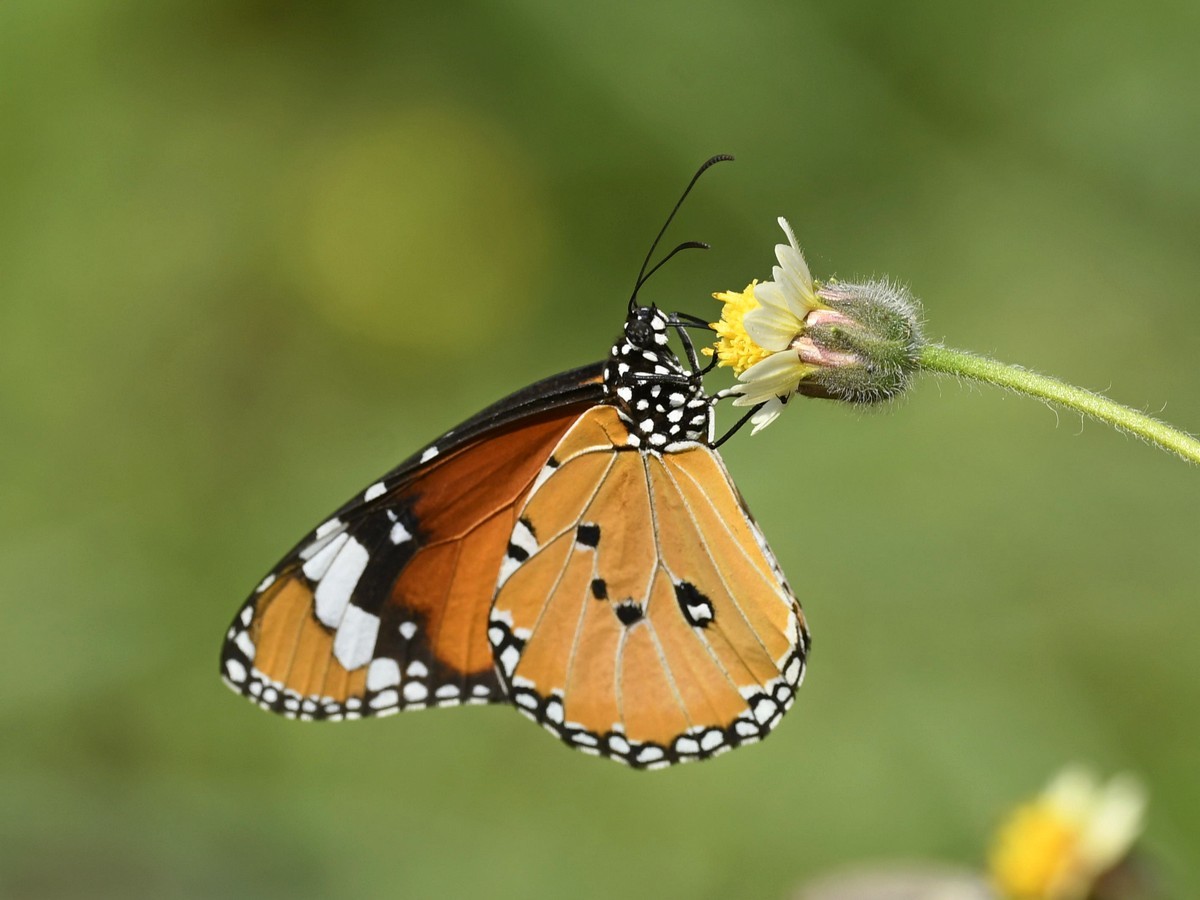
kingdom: Animalia
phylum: Arthropoda
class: Insecta
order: Lepidoptera
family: Nymphalidae
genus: Danaus
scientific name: Danaus chrysippus
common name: Plain tiger
